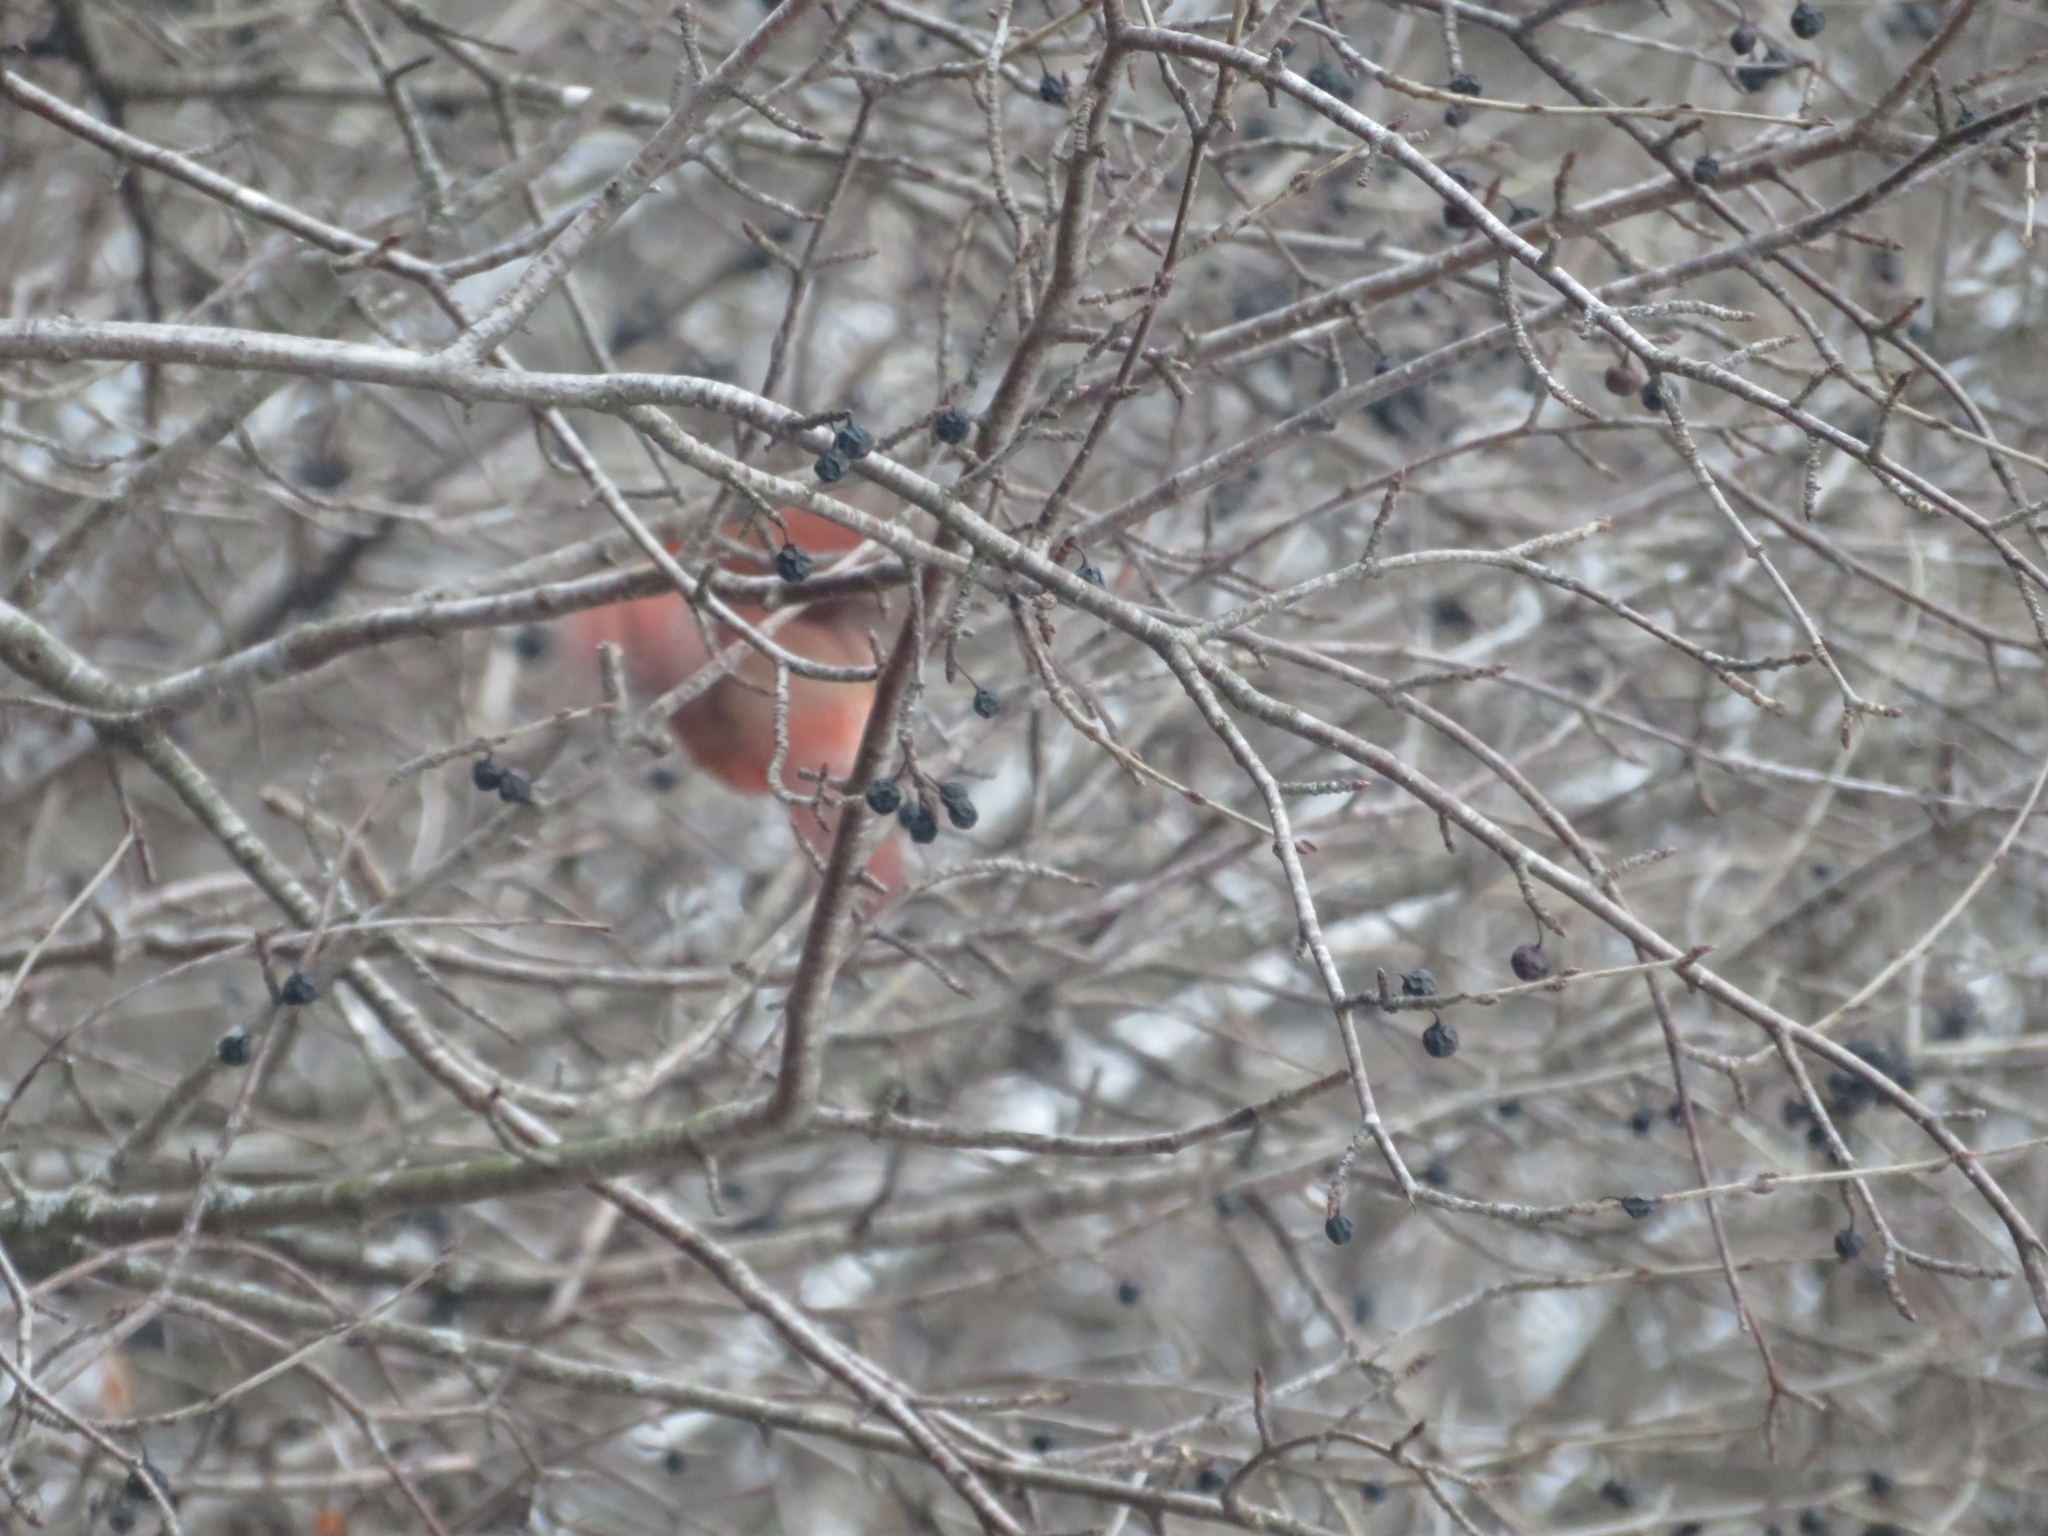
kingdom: Animalia
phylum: Chordata
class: Aves
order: Passeriformes
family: Cardinalidae
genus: Cardinalis
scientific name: Cardinalis cardinalis
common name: Northern cardinal
